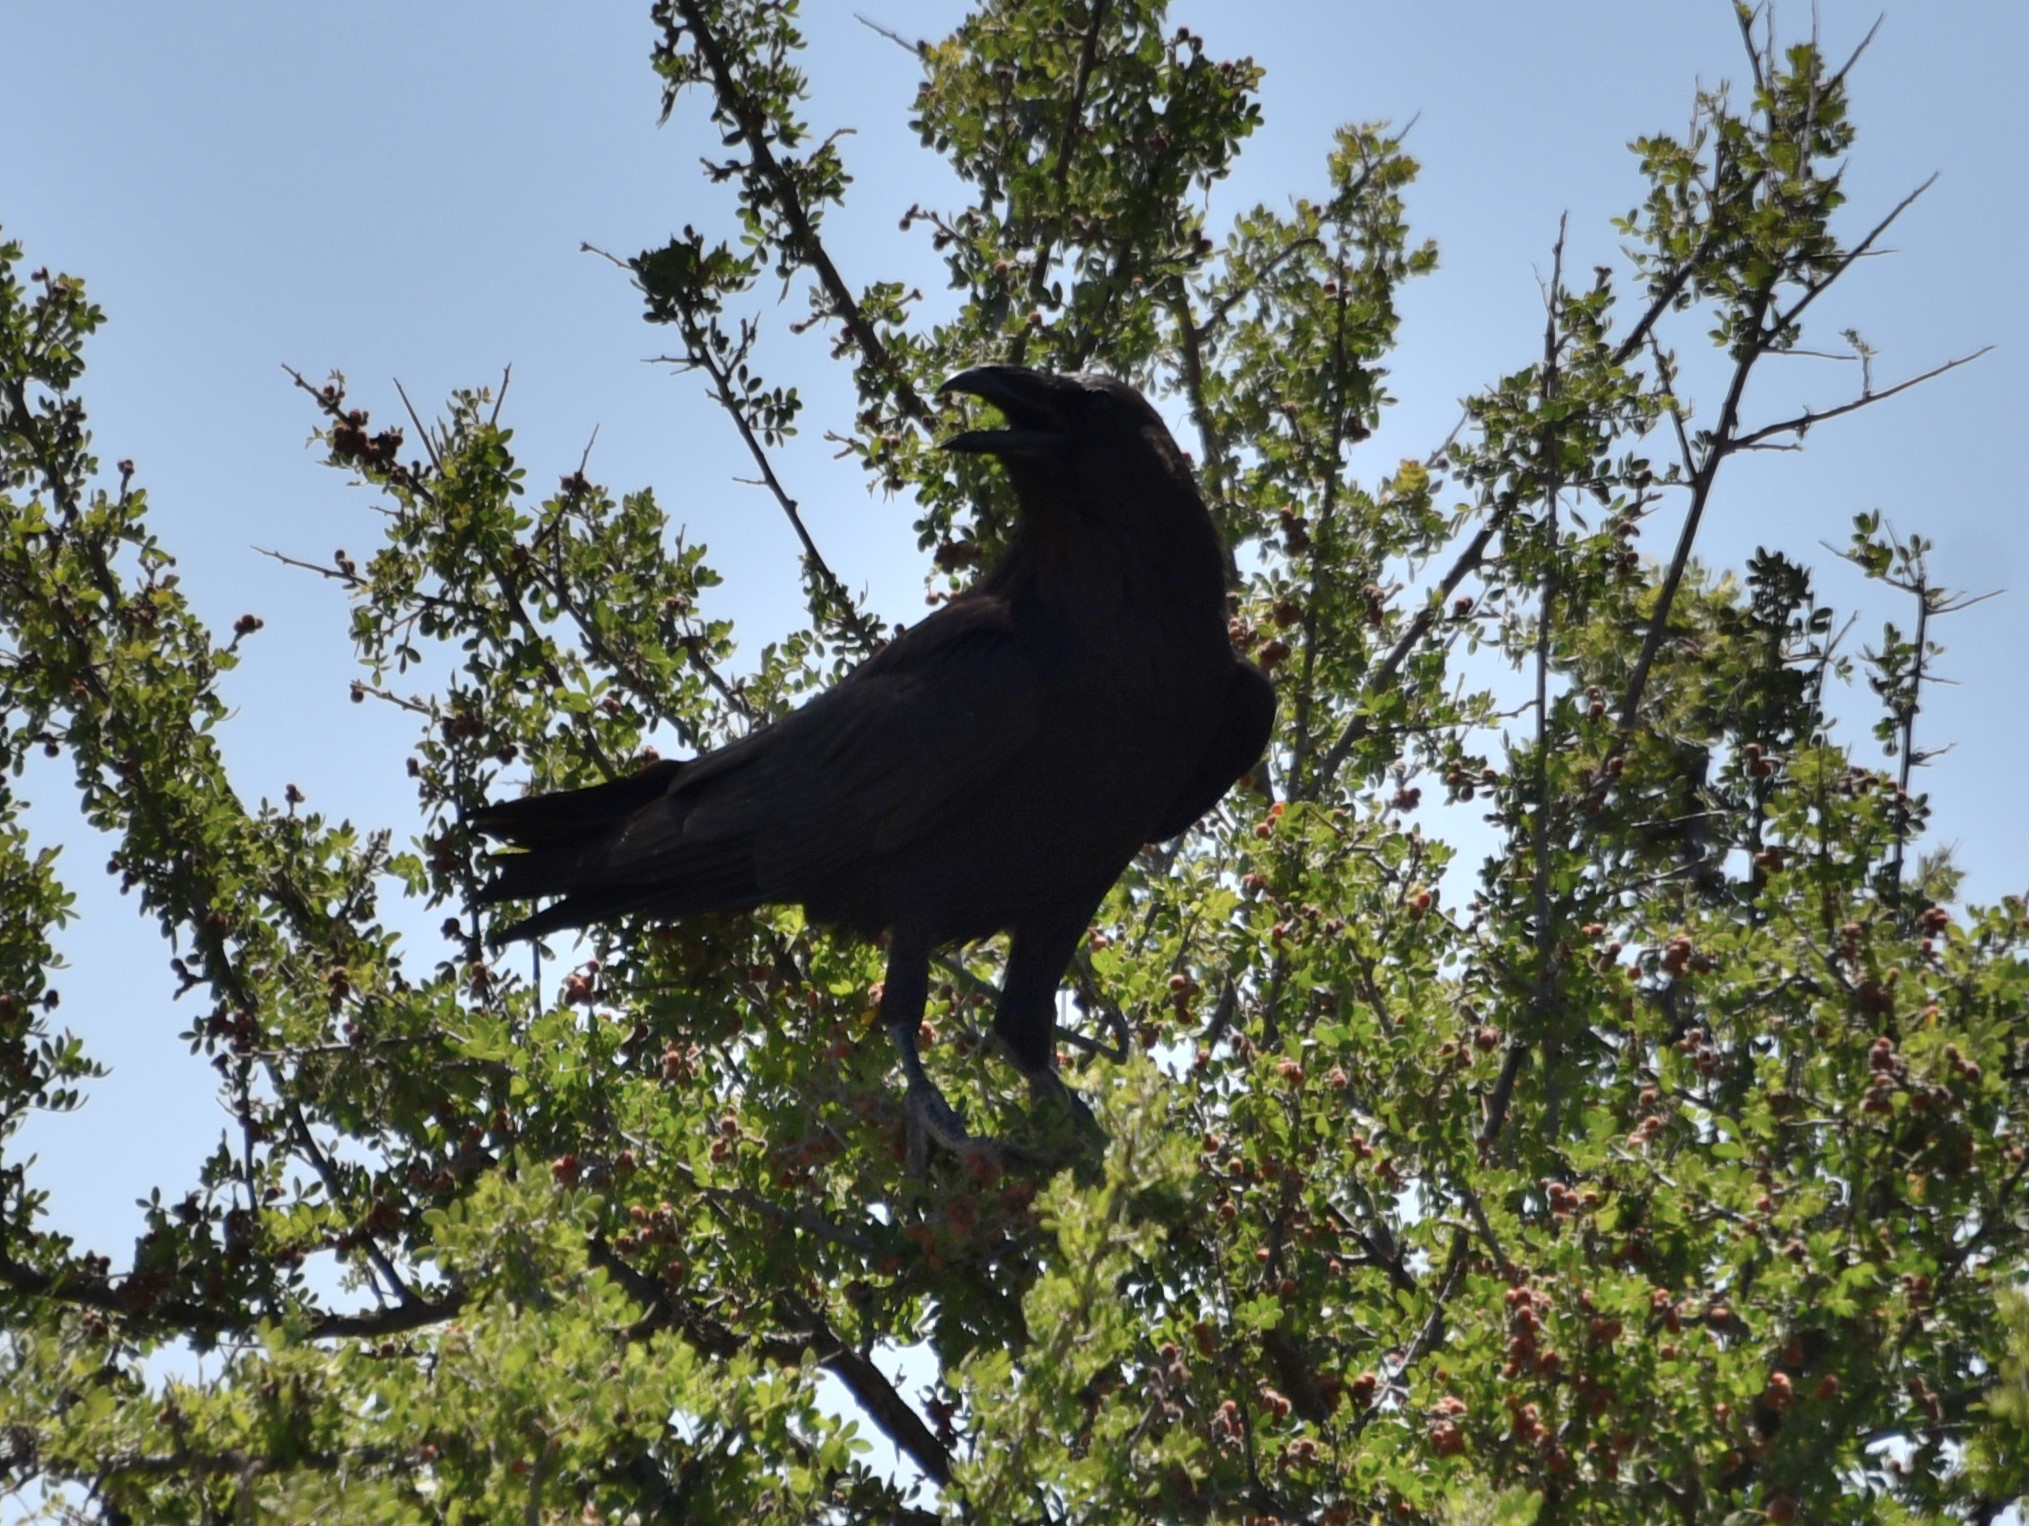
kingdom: Animalia
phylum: Chordata
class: Aves
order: Passeriformes
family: Corvidae
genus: Corvus
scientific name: Corvus cryptoleucus
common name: Chihuahuan raven
